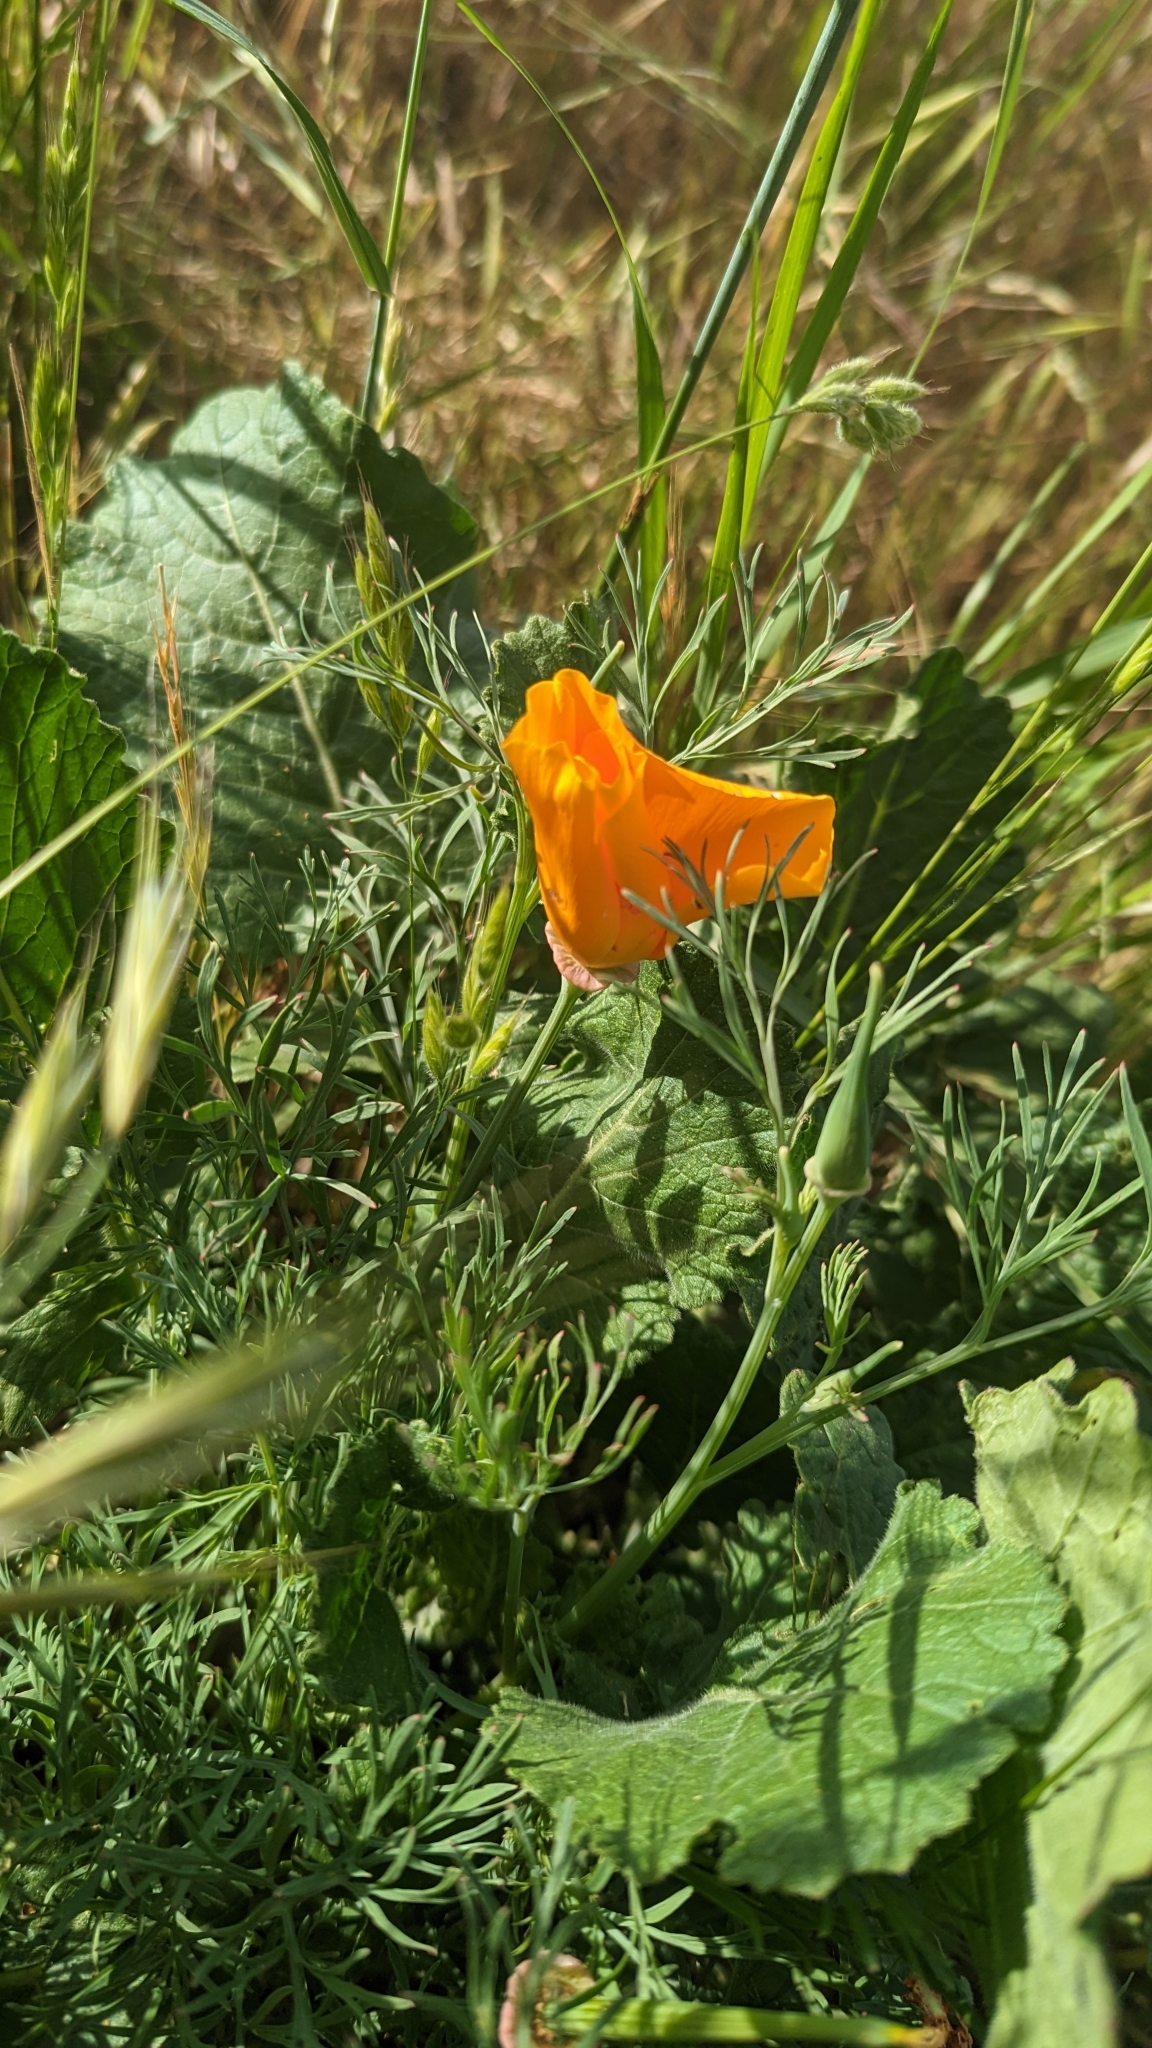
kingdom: Plantae
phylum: Tracheophyta
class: Magnoliopsida
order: Ranunculales
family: Papaveraceae
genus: Eschscholzia
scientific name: Eschscholzia californica
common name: California poppy
